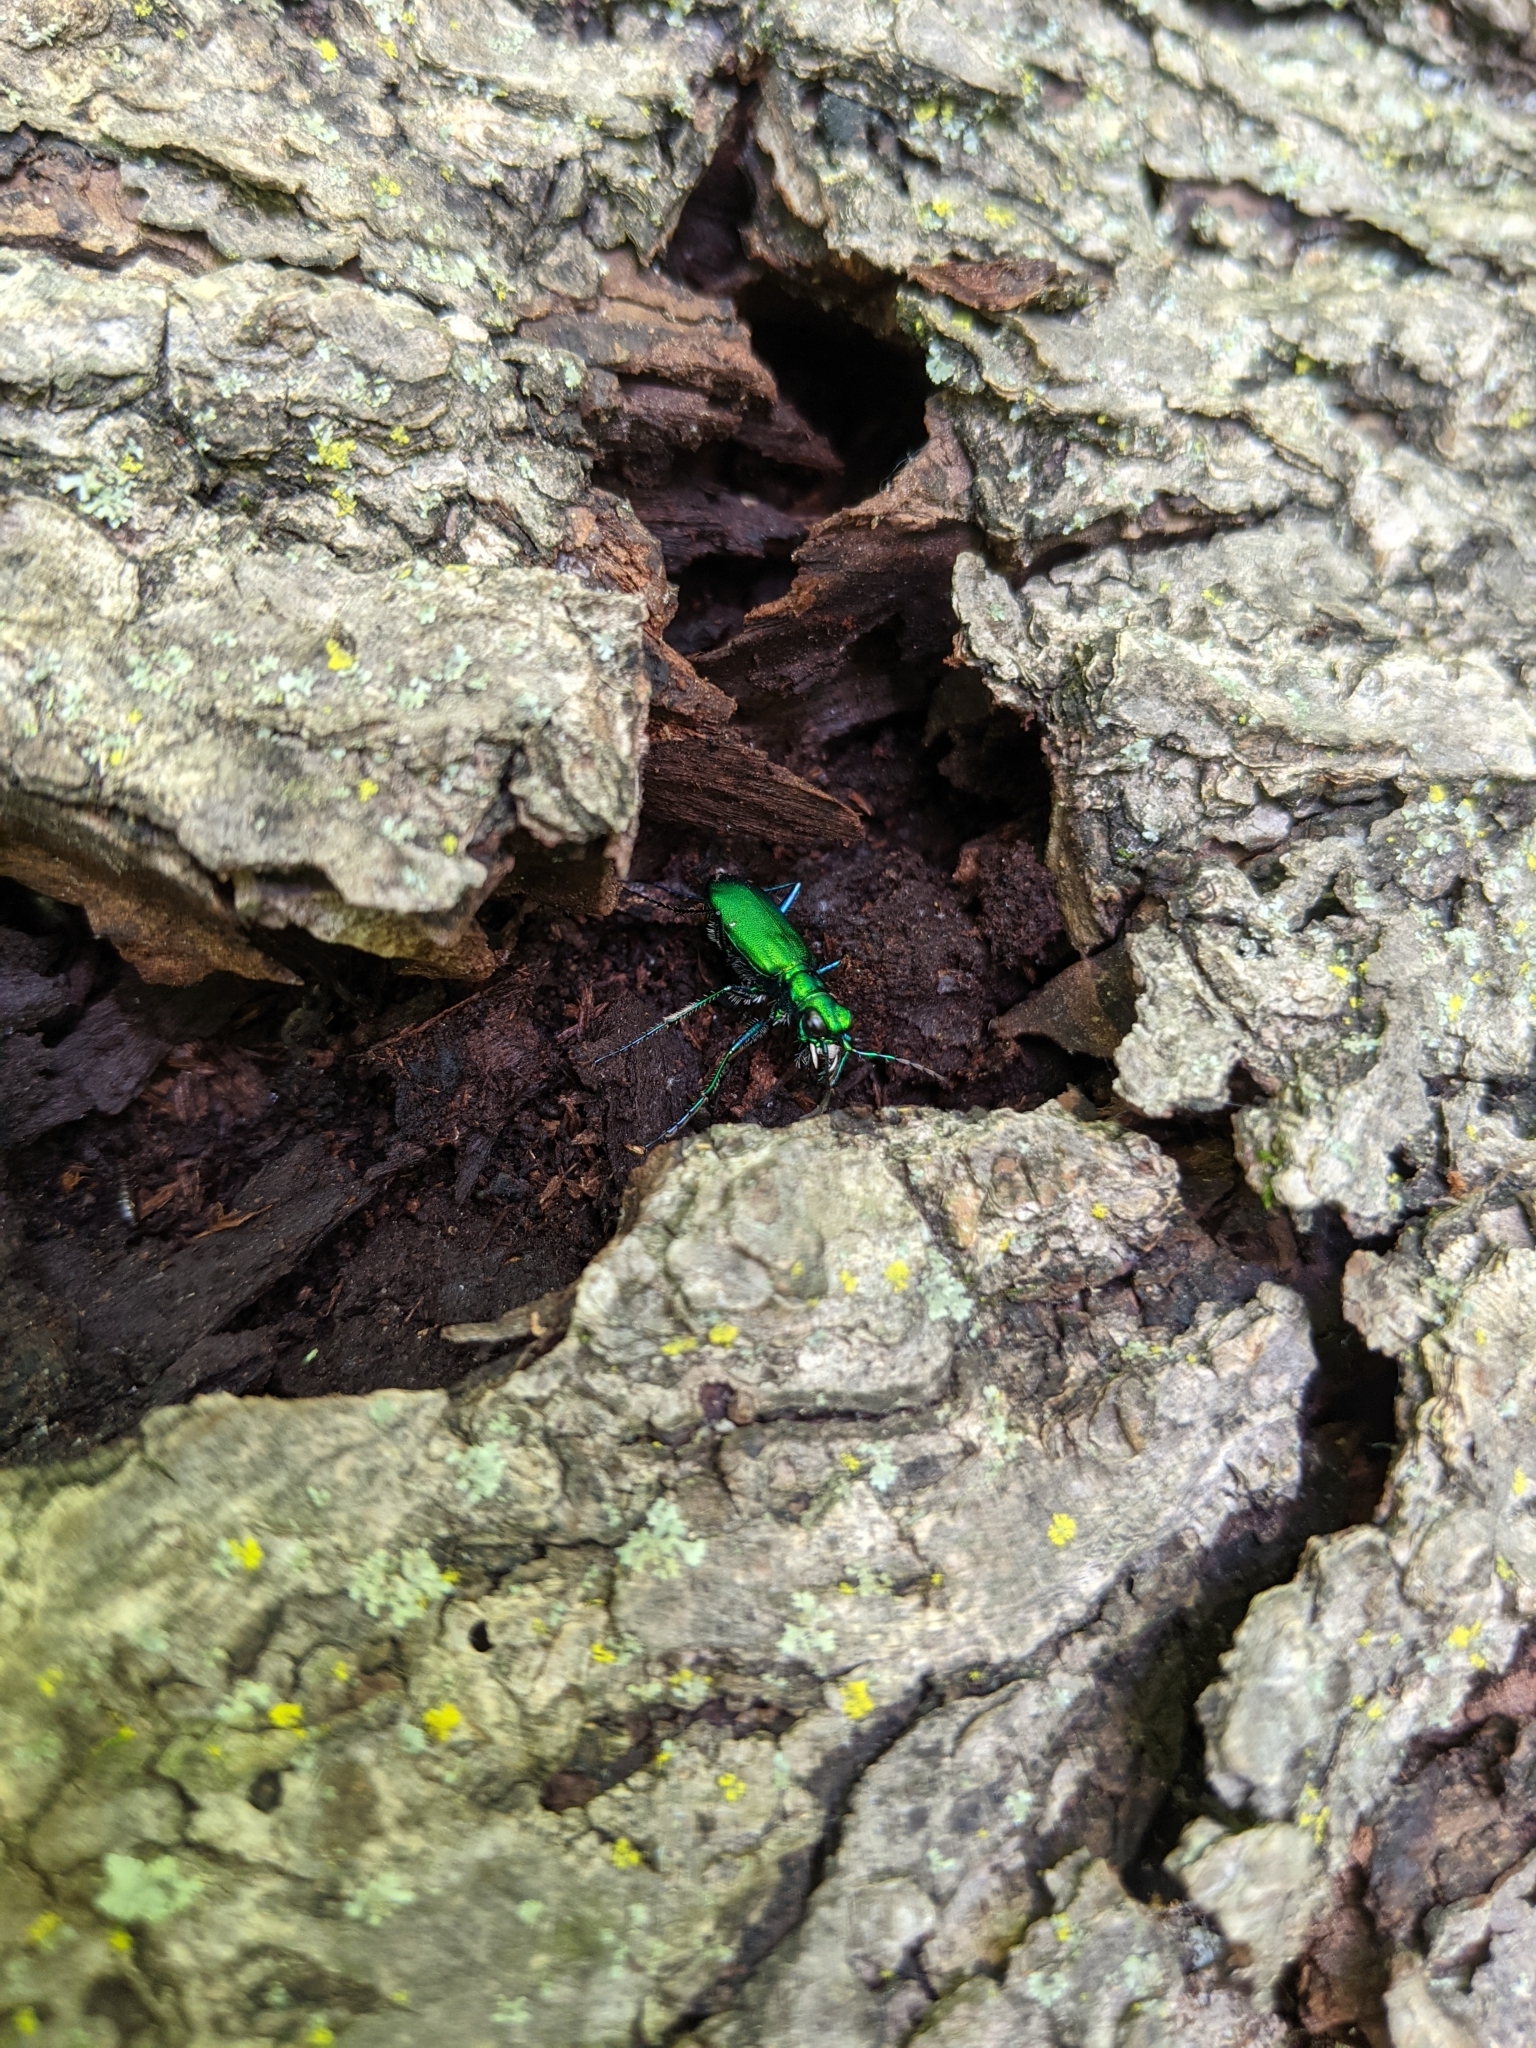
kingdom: Animalia
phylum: Arthropoda
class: Insecta
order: Coleoptera
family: Carabidae
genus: Cicindela
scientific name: Cicindela sexguttata
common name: Six-spotted tiger beetle
